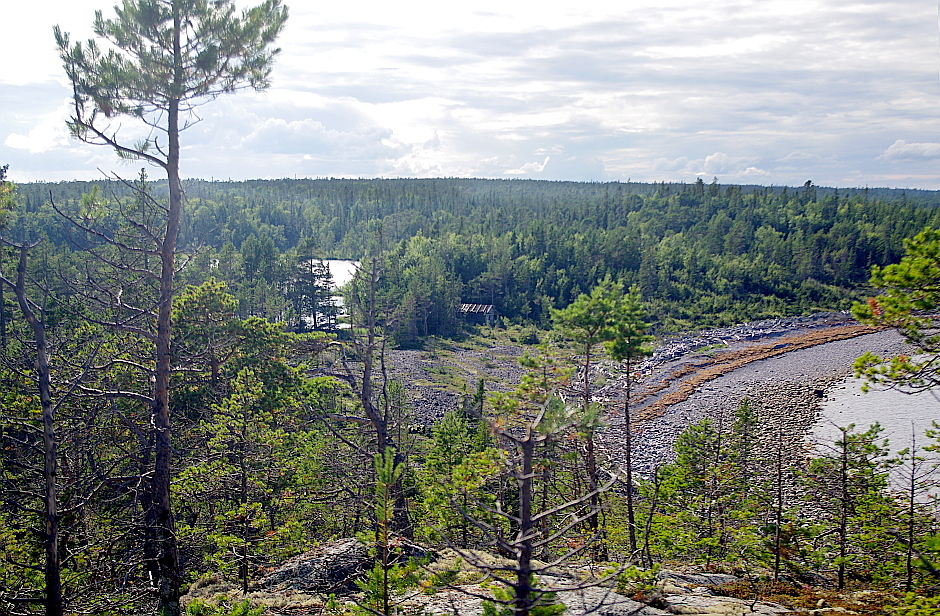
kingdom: Plantae
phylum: Tracheophyta
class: Pinopsida
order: Pinales
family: Pinaceae
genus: Pinus
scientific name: Pinus sylvestris
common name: Scots pine
